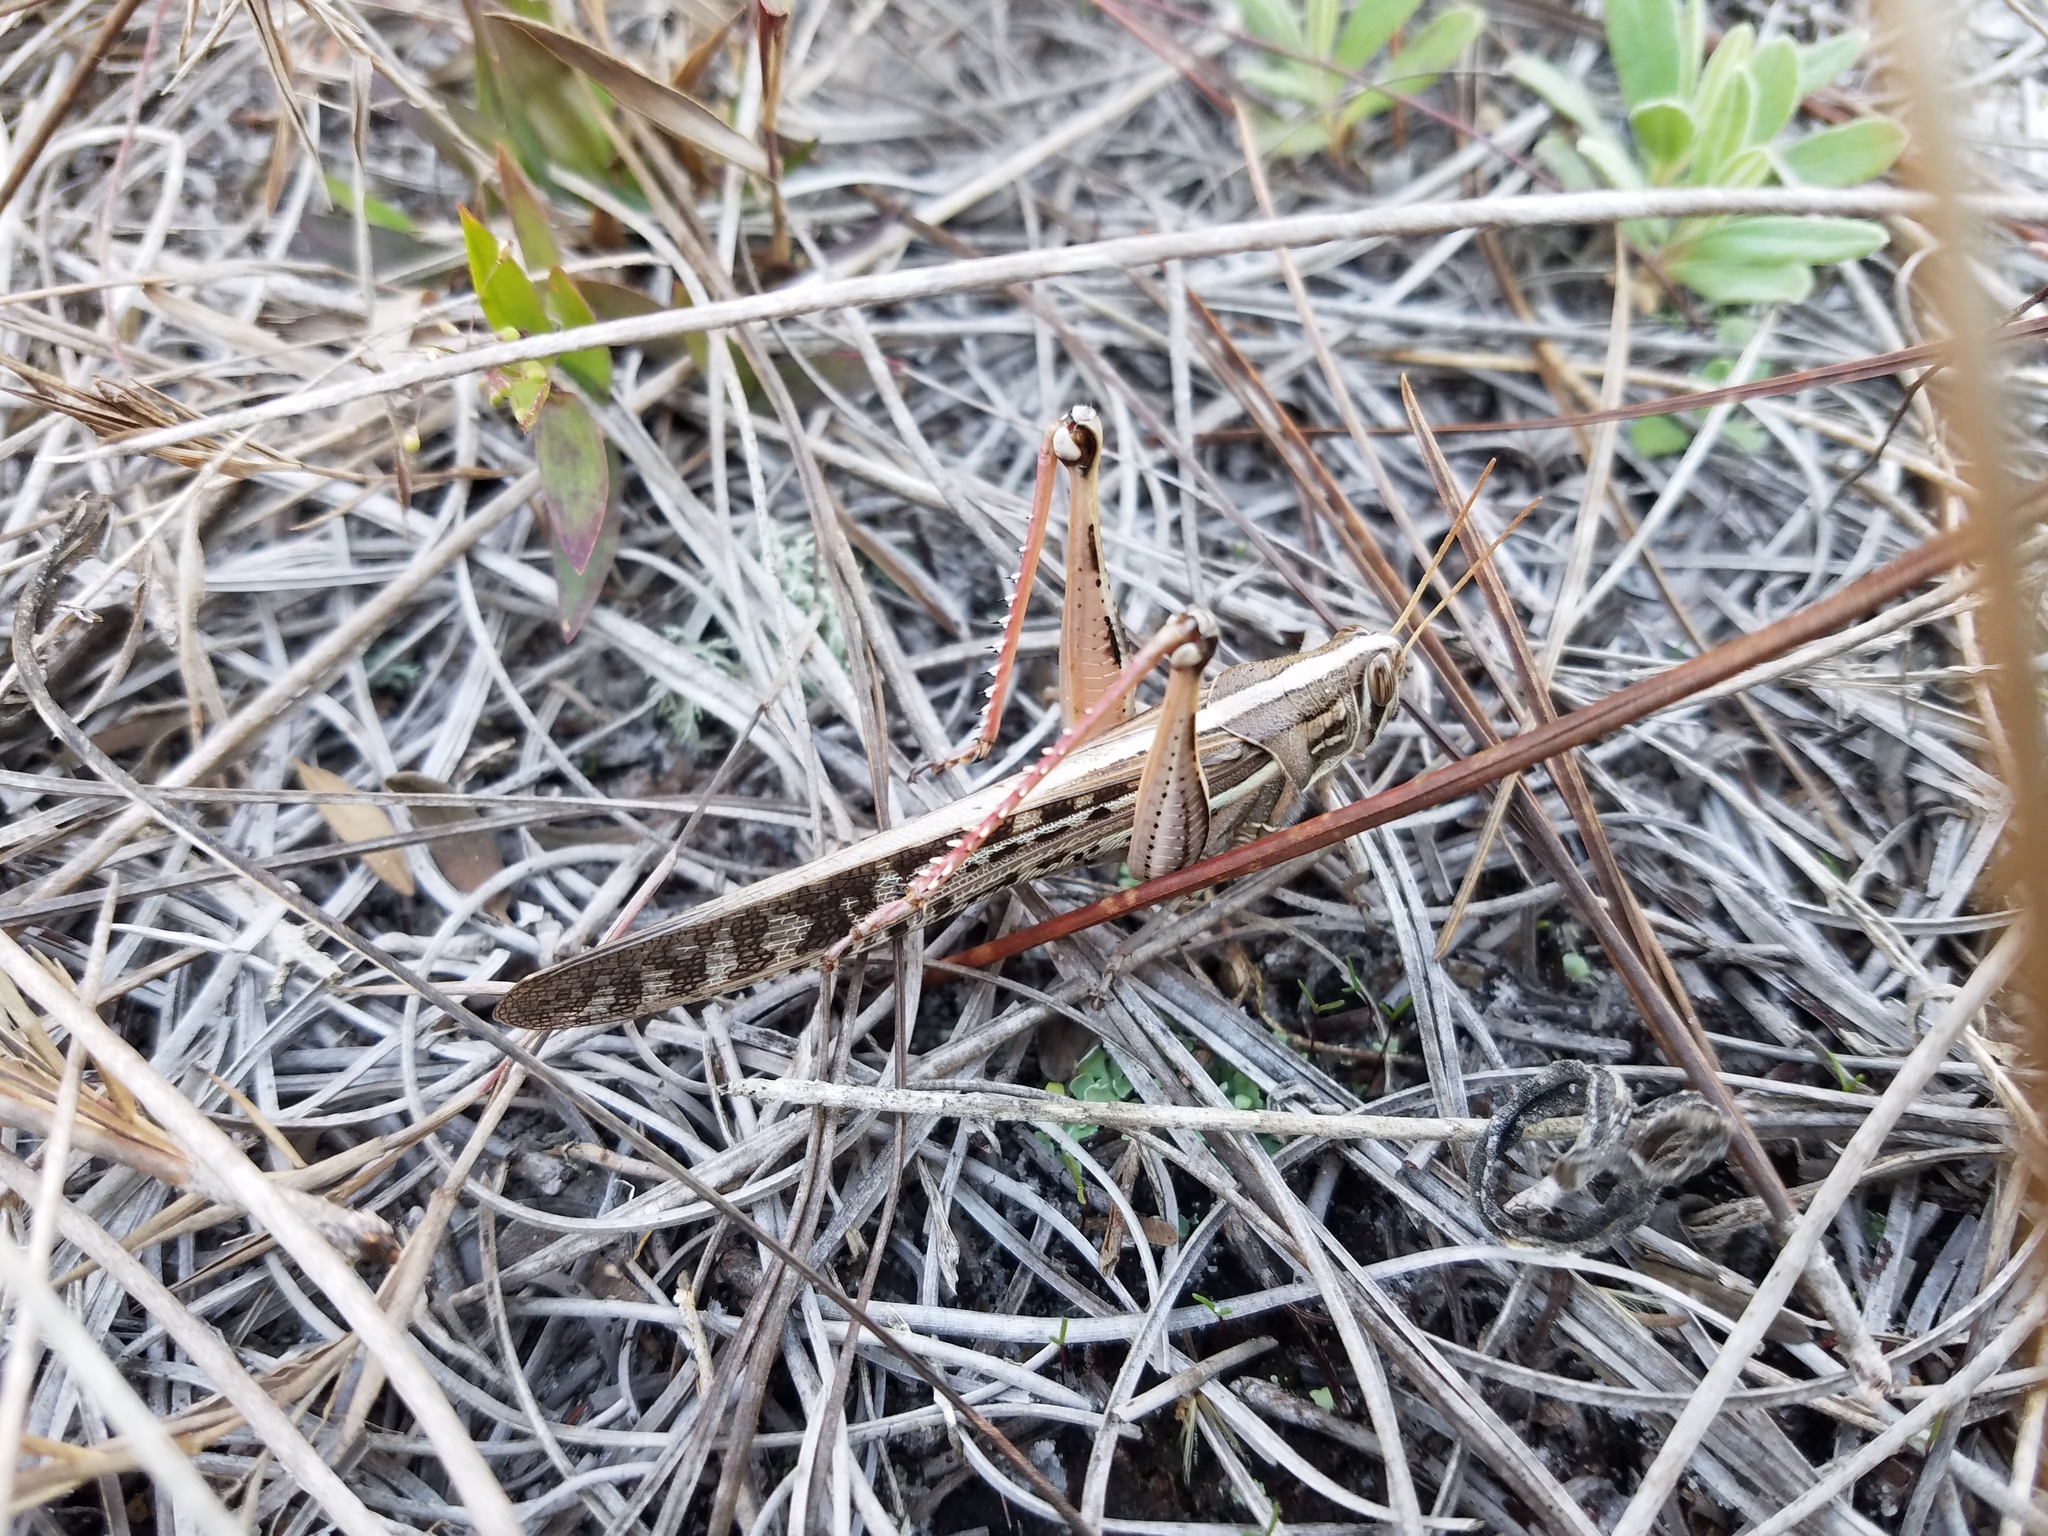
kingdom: Animalia
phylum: Arthropoda
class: Insecta
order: Orthoptera
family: Acrididae
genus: Schistocerca
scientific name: Schistocerca americana
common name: American bird locust
